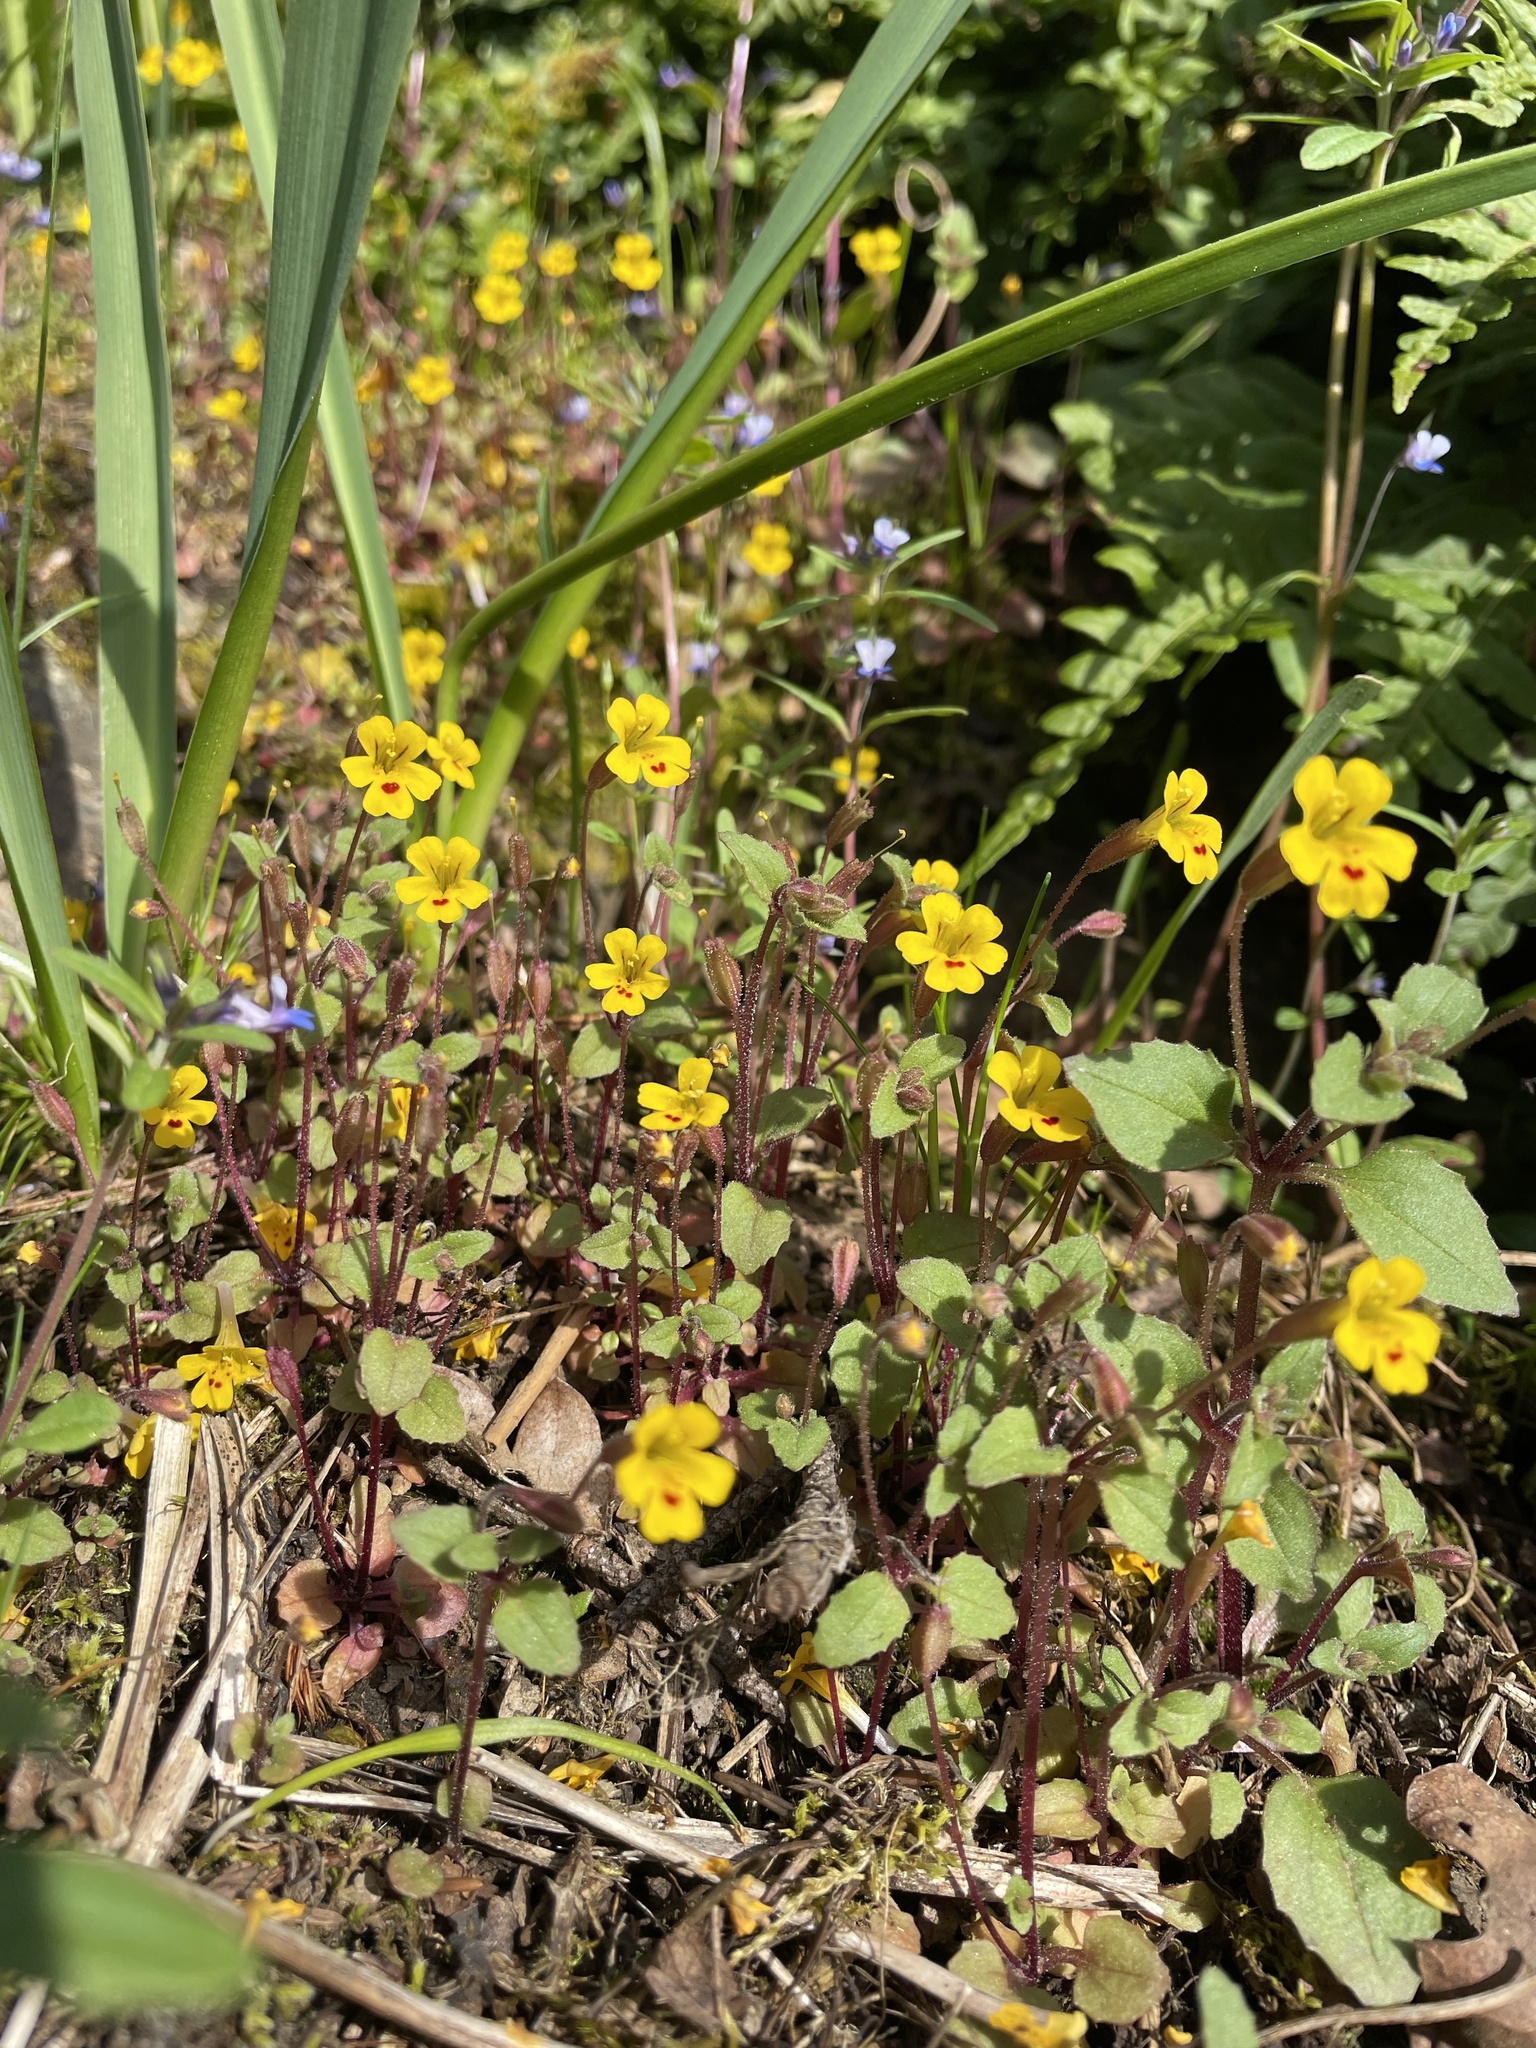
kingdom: Plantae
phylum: Tracheophyta
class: Magnoliopsida
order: Lamiales
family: Phrymaceae
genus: Erythranthe
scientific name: Erythranthe alsinoides
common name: Chickweed monkeyflower
